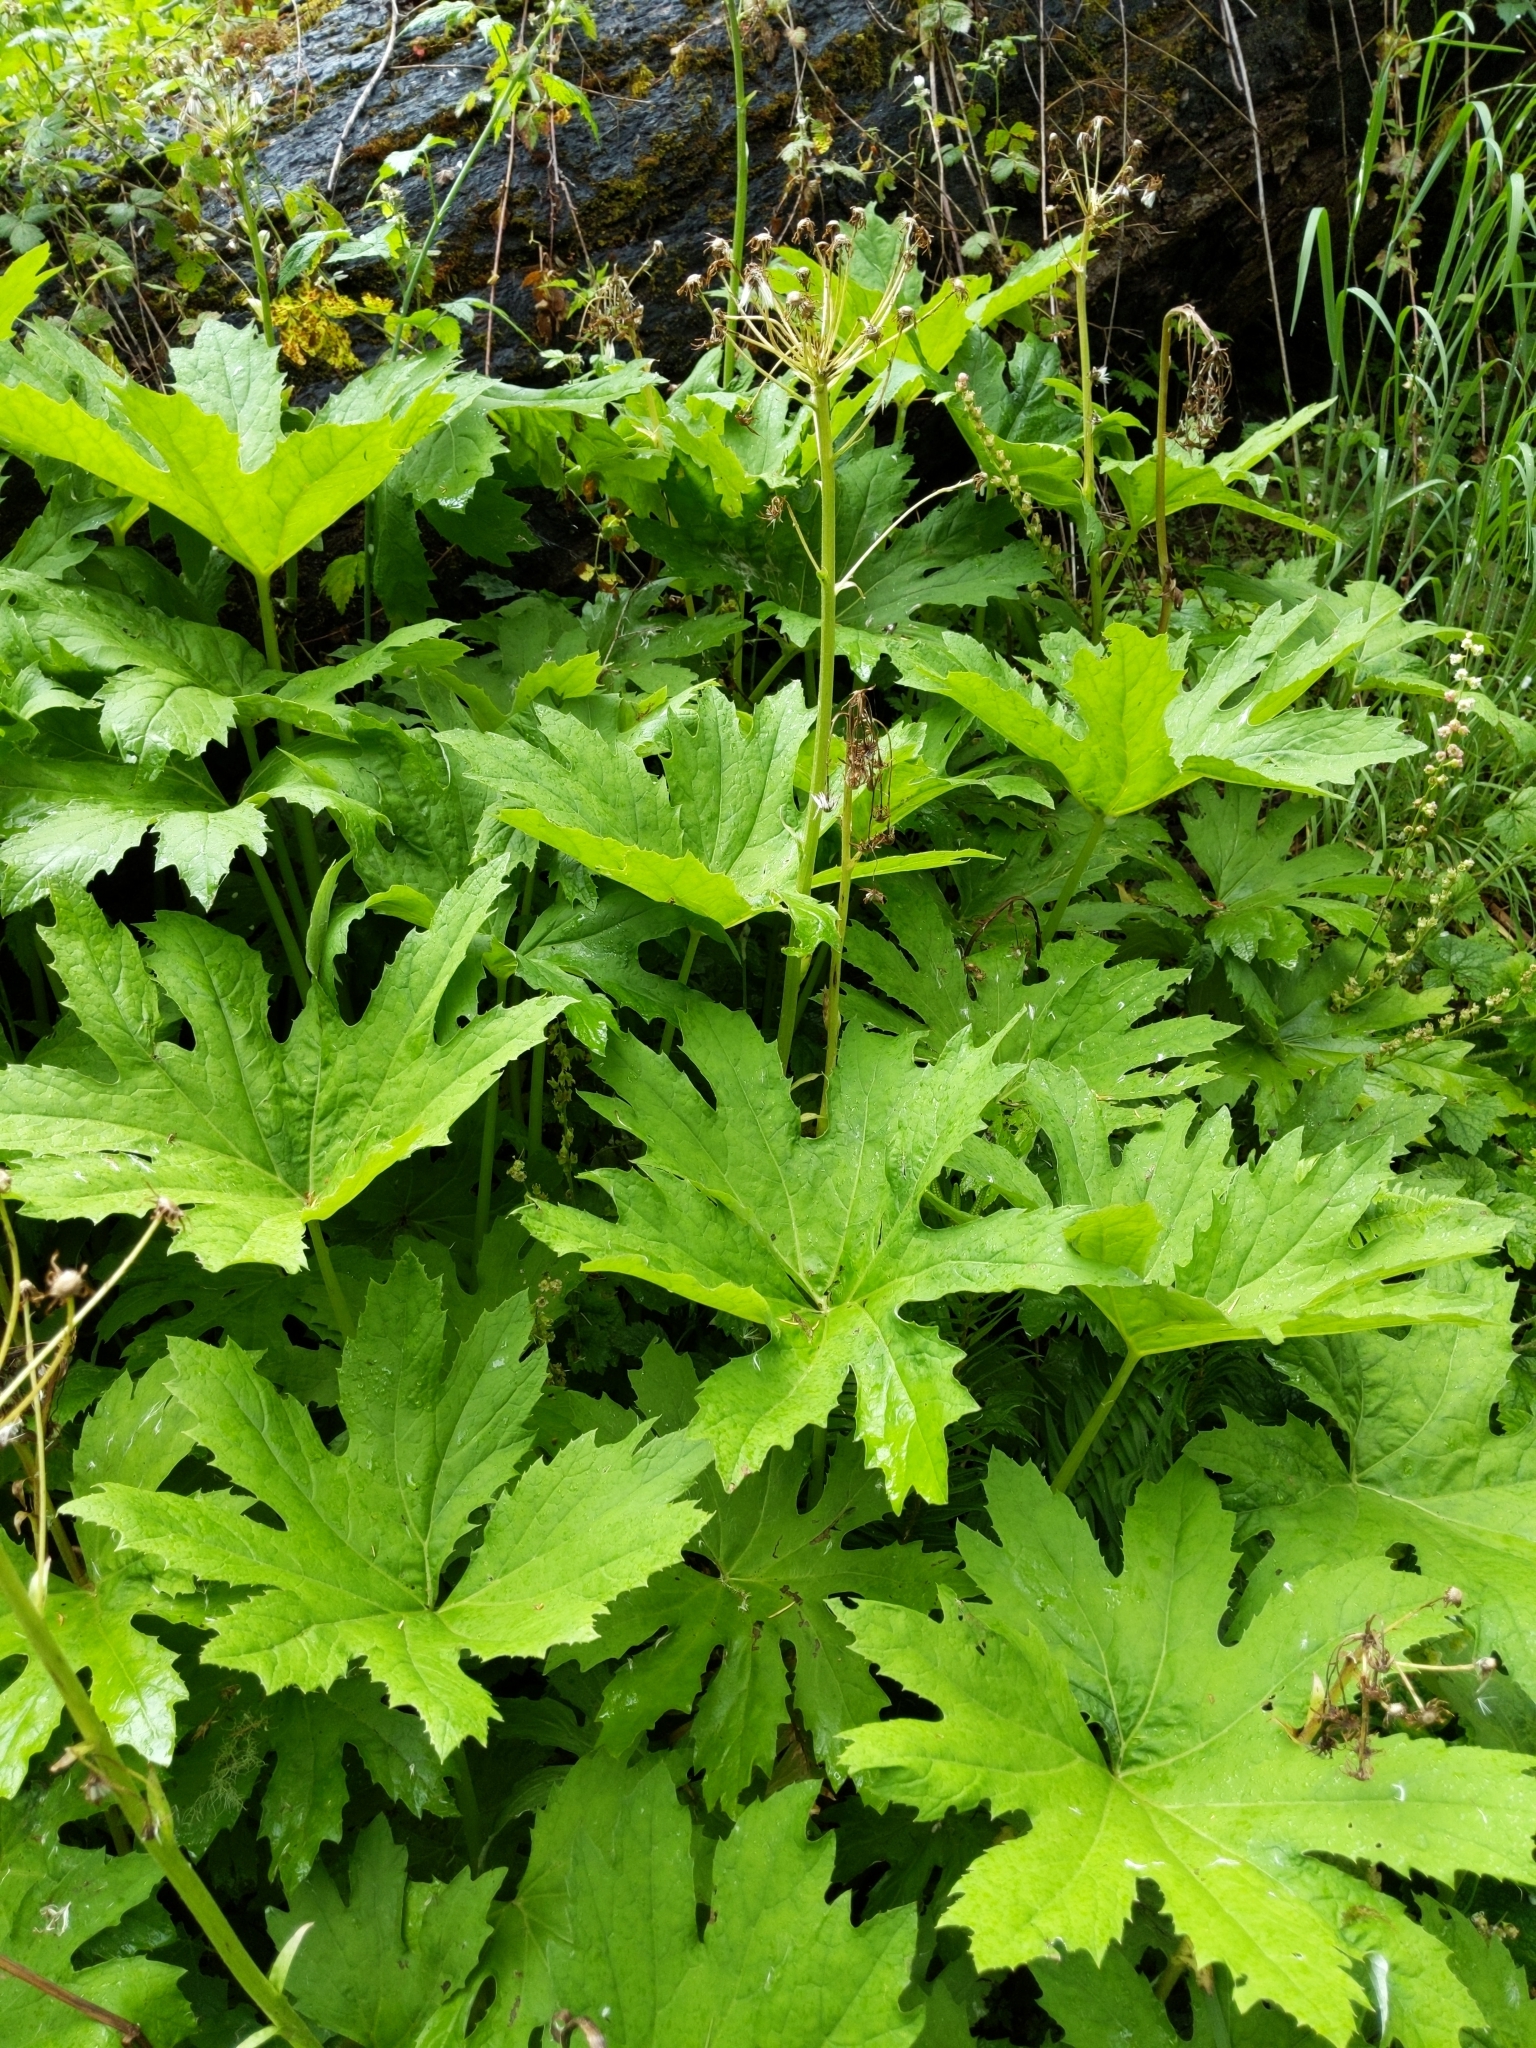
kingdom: Plantae
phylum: Tracheophyta
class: Magnoliopsida
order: Asterales
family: Asteraceae
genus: Petasites
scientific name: Petasites frigidus
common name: Arctic butterbur
